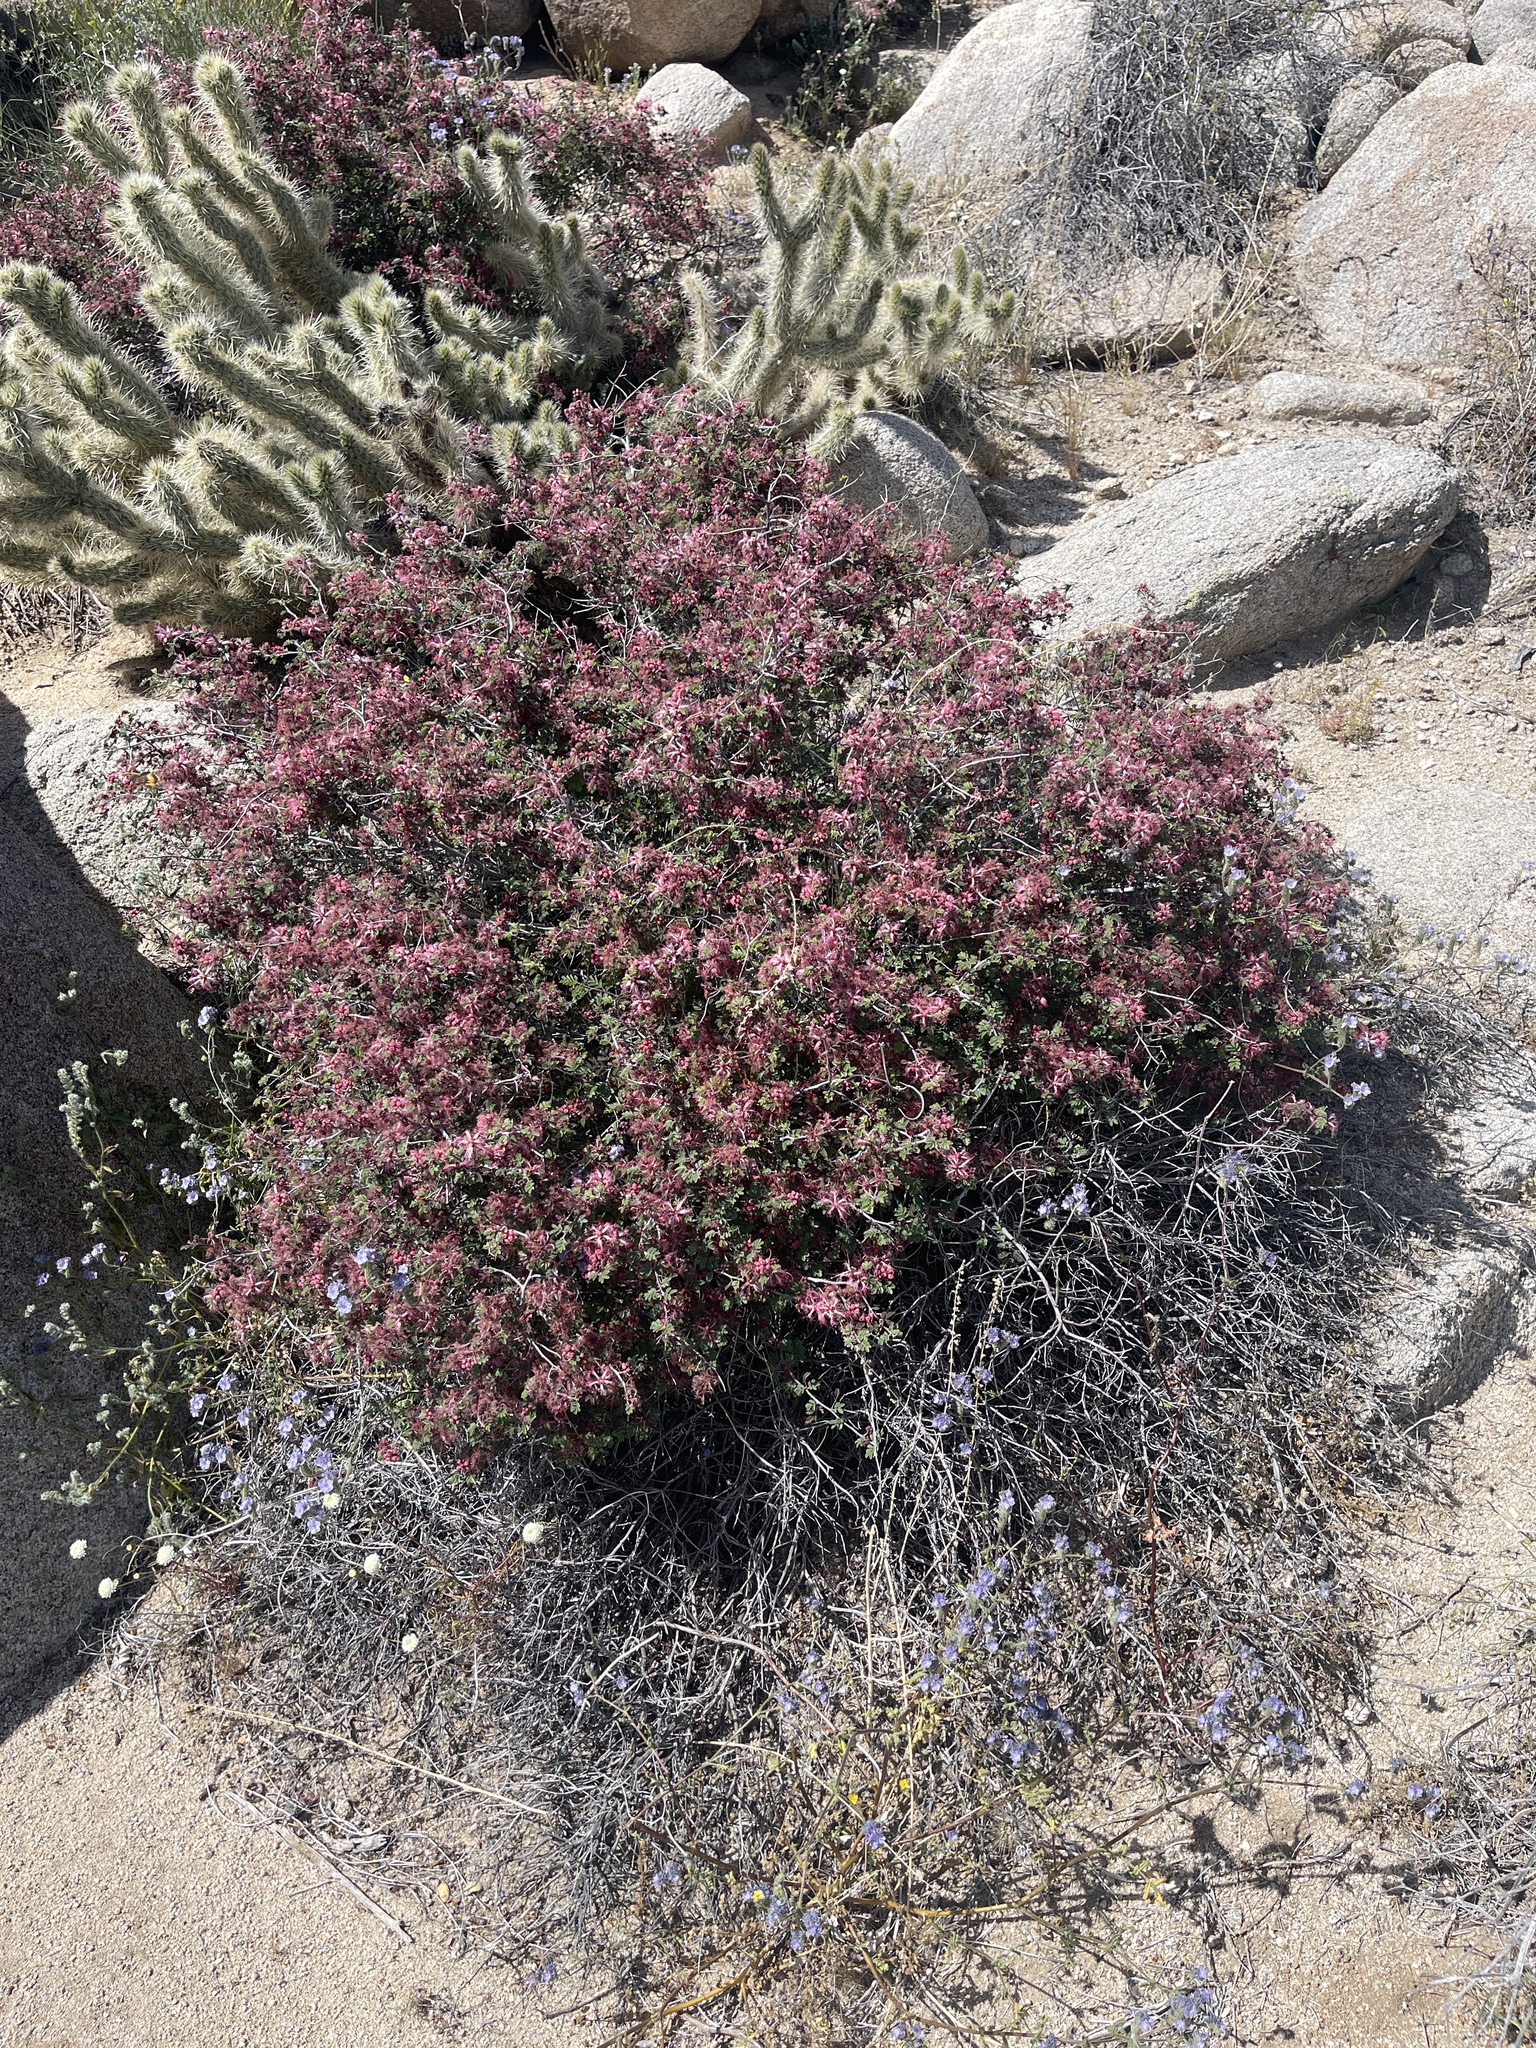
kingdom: Plantae
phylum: Tracheophyta
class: Magnoliopsida
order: Fabales
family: Fabaceae
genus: Calliandra
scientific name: Calliandra eriophylla
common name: Fairy-duster
